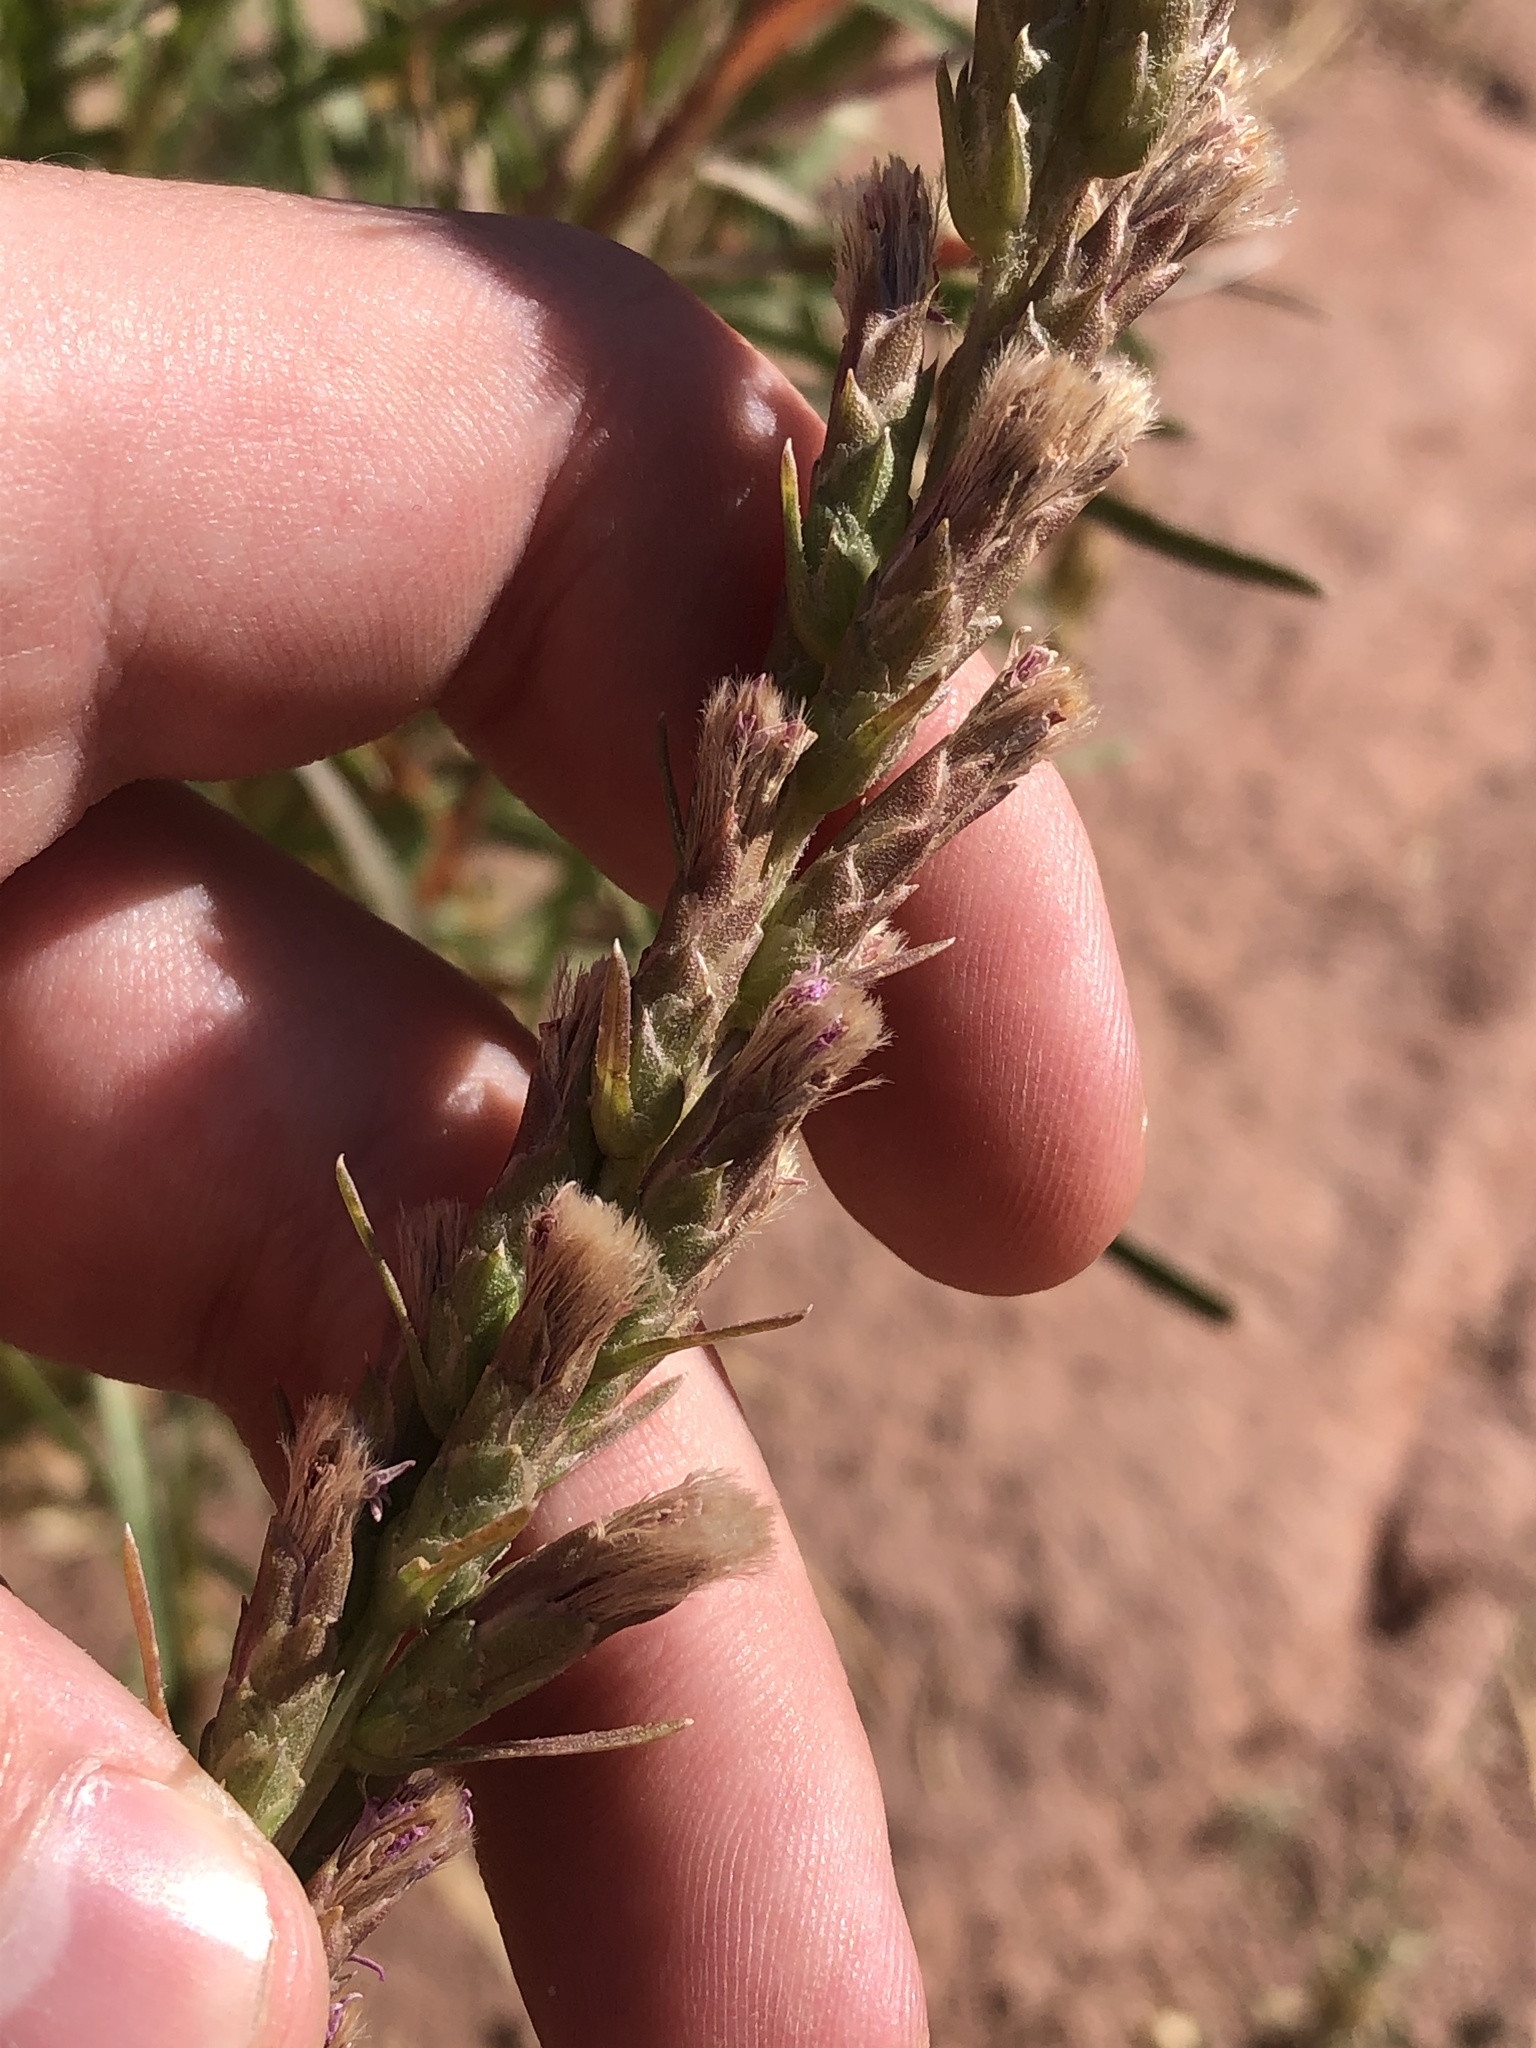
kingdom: Plantae
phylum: Tracheophyta
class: Magnoliopsida
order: Asterales
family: Asteraceae
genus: Liatris
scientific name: Liatris punctata
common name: Dotted gayfeather
